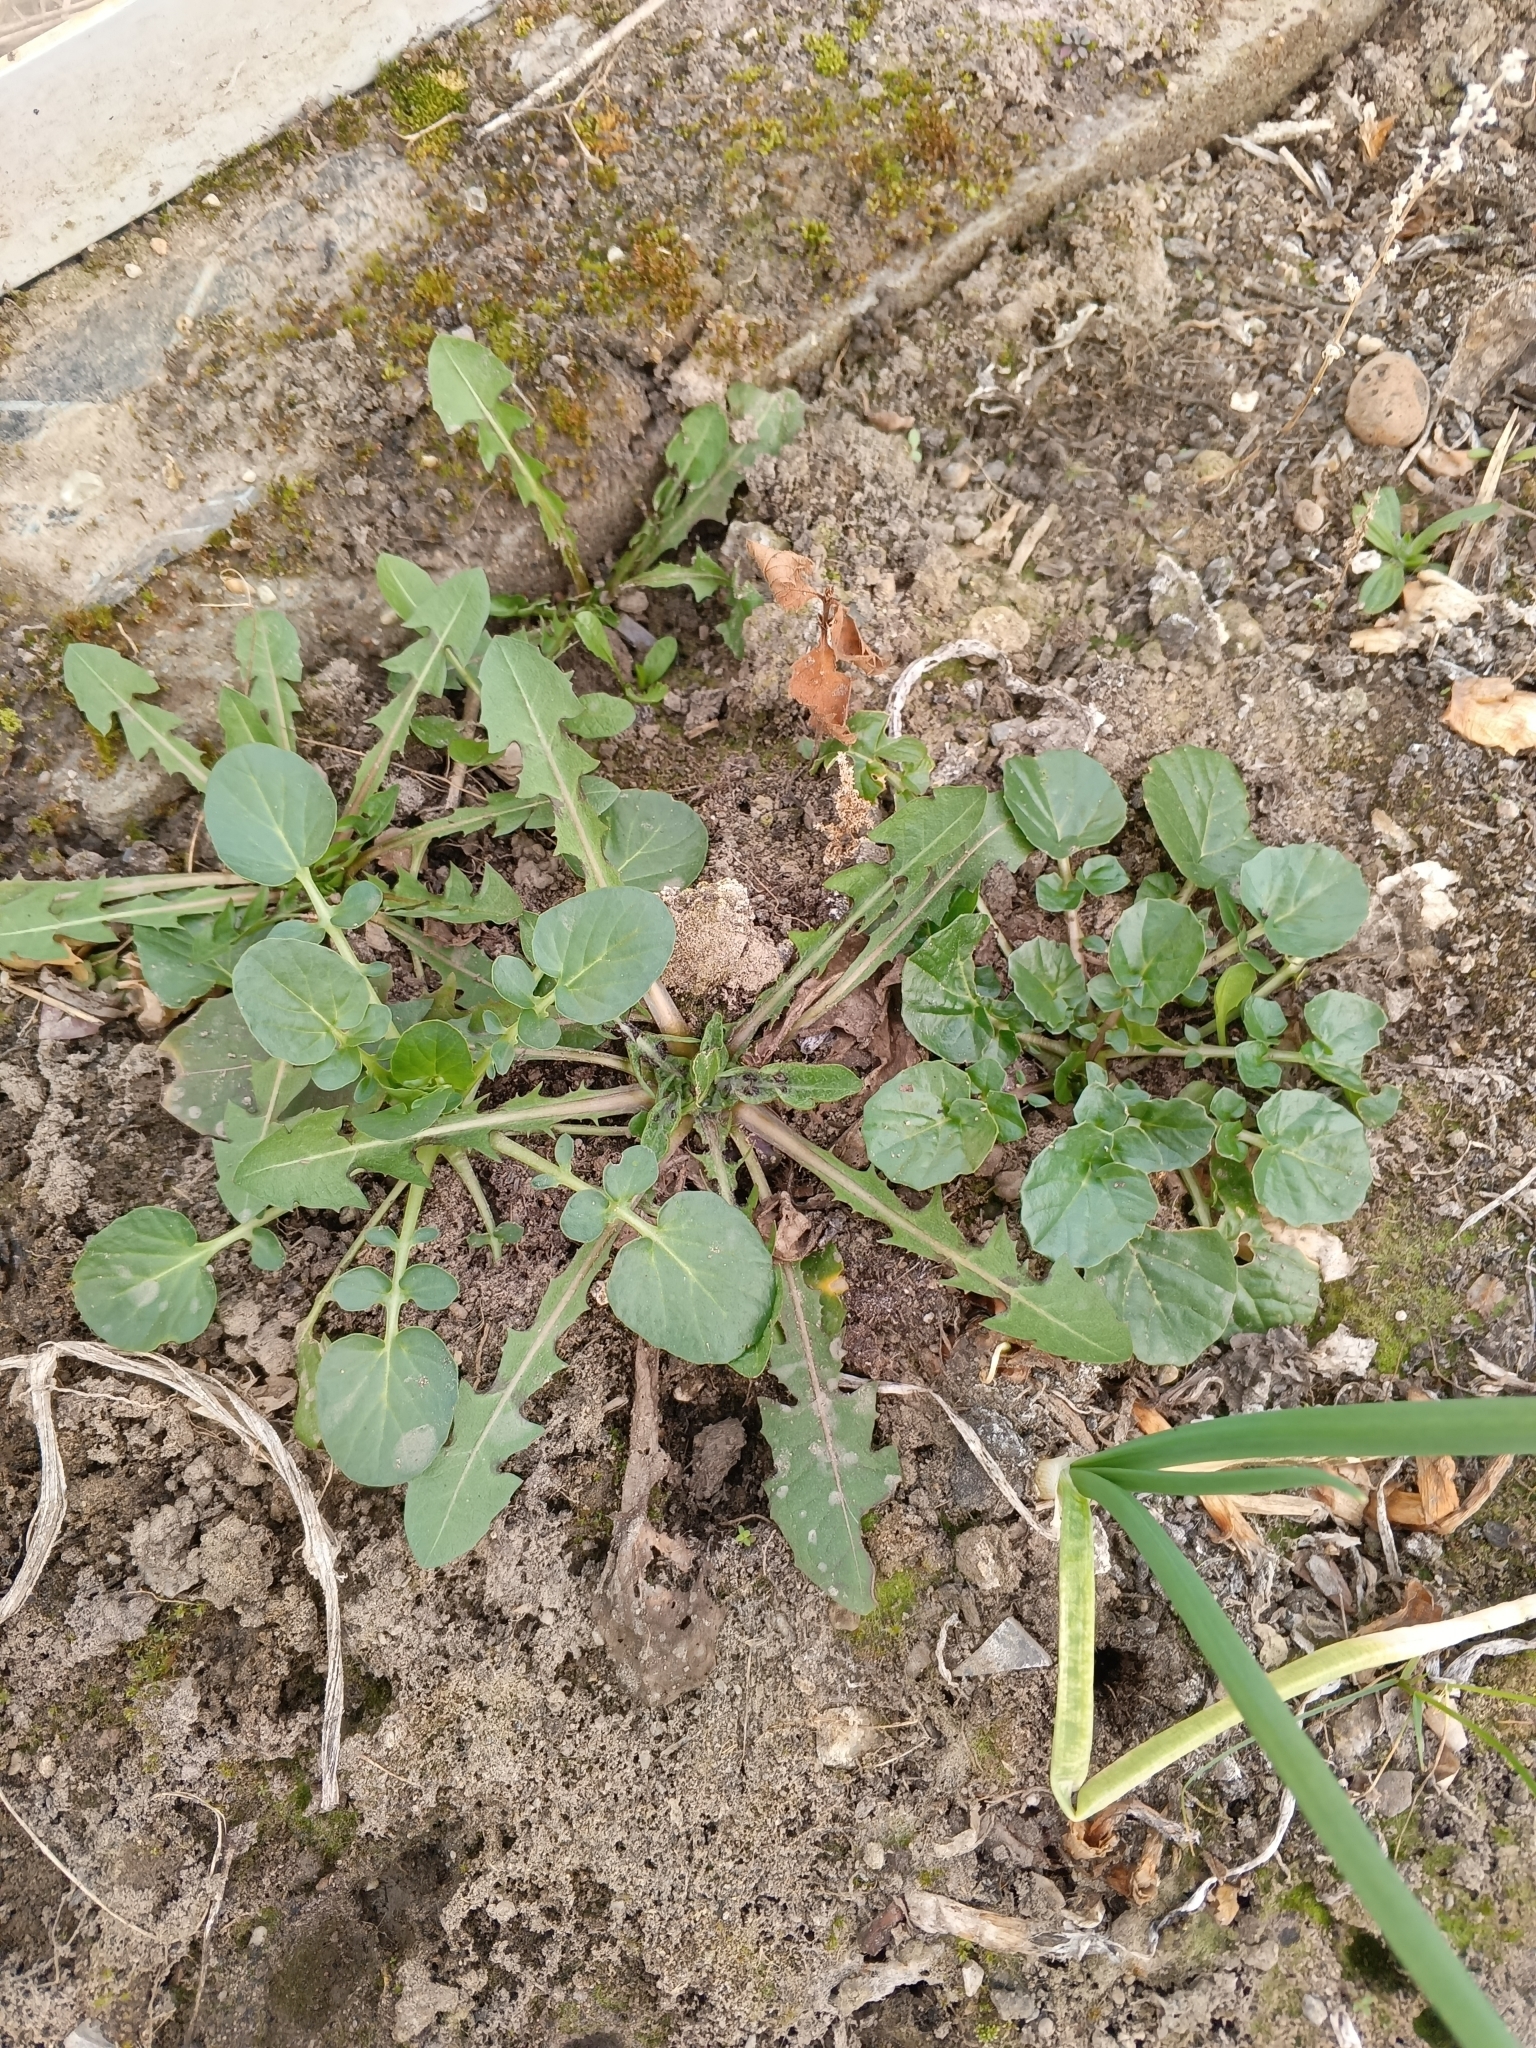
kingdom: Plantae
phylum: Tracheophyta
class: Magnoliopsida
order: Brassicales
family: Brassicaceae
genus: Barbarea
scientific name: Barbarea vulgaris
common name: Cressy-greens
